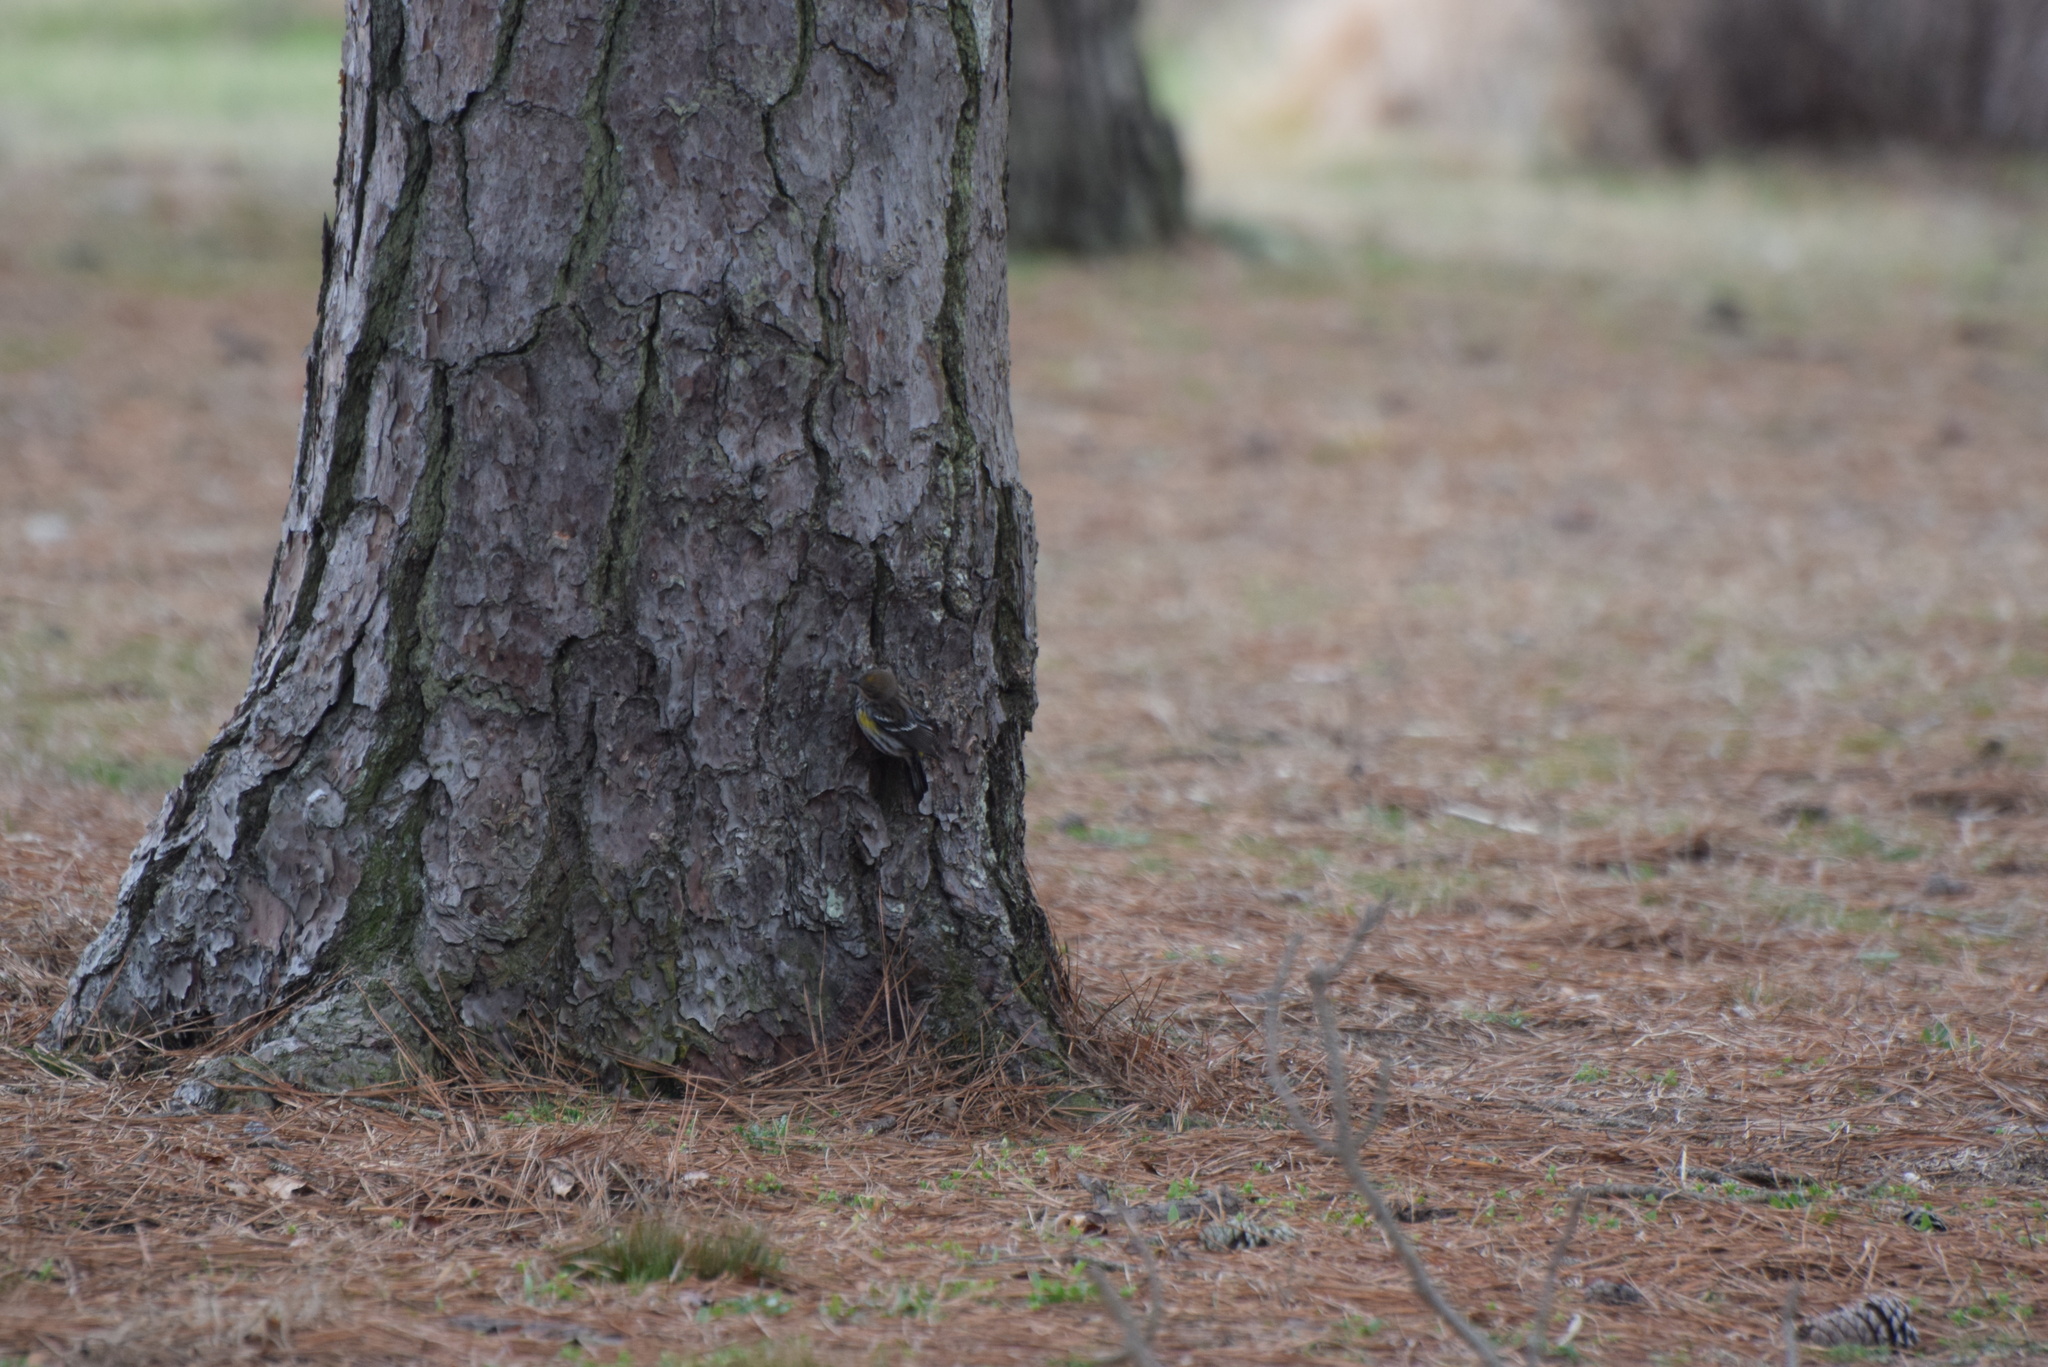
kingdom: Animalia
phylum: Chordata
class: Aves
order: Passeriformes
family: Parulidae
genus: Setophaga
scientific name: Setophaga coronata
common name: Myrtle warbler
